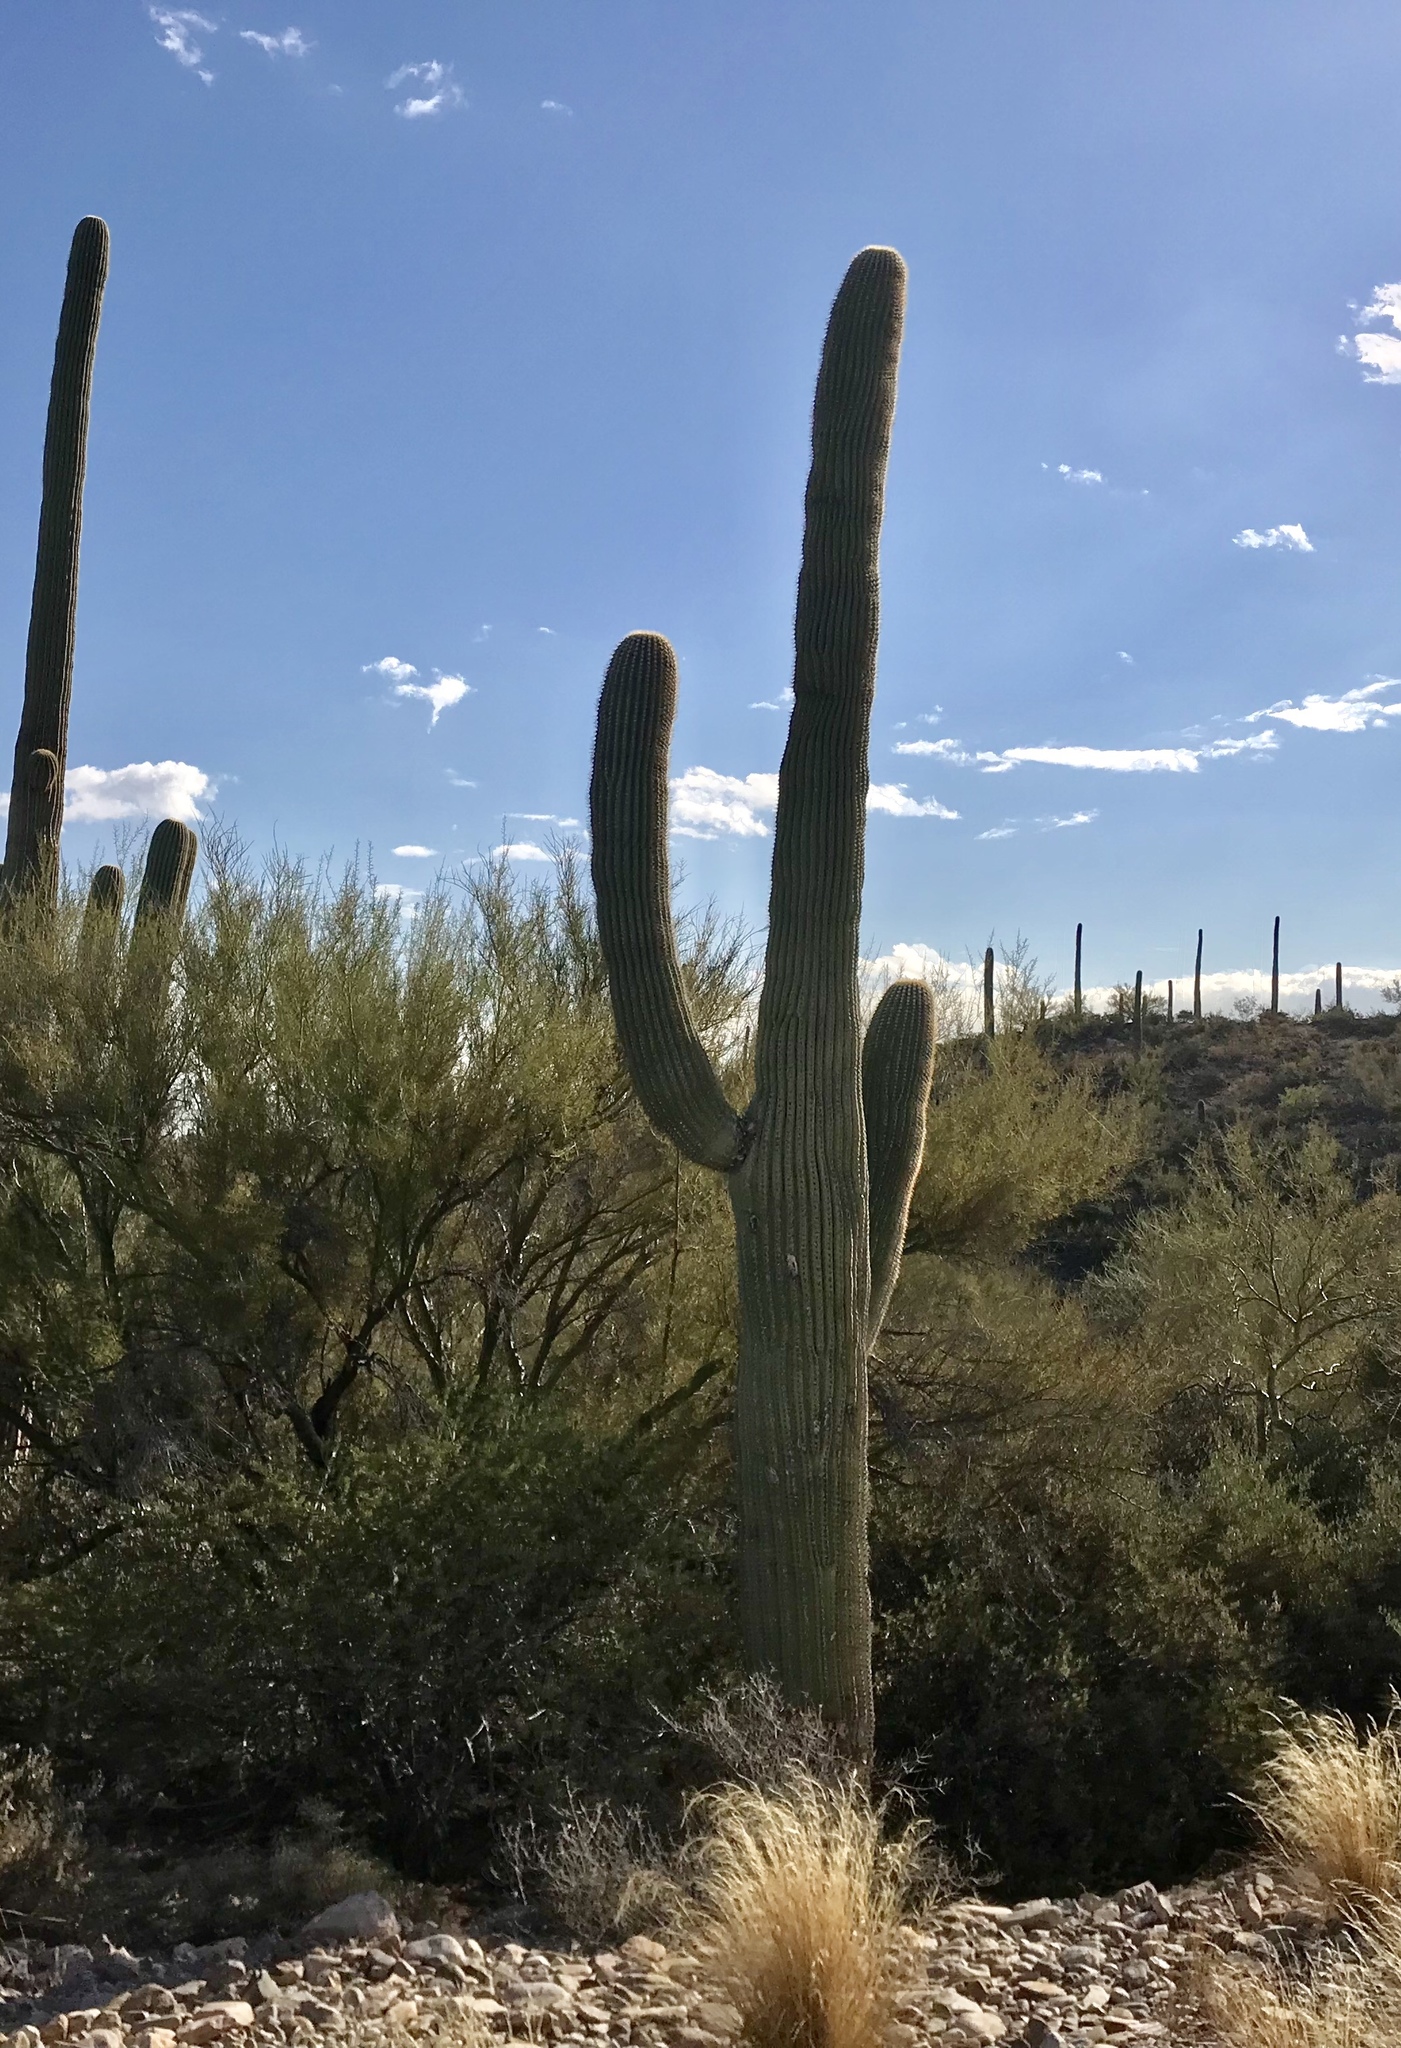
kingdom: Plantae
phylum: Tracheophyta
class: Magnoliopsida
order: Caryophyllales
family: Cactaceae
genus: Carnegiea
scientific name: Carnegiea gigantea
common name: Saguaro
